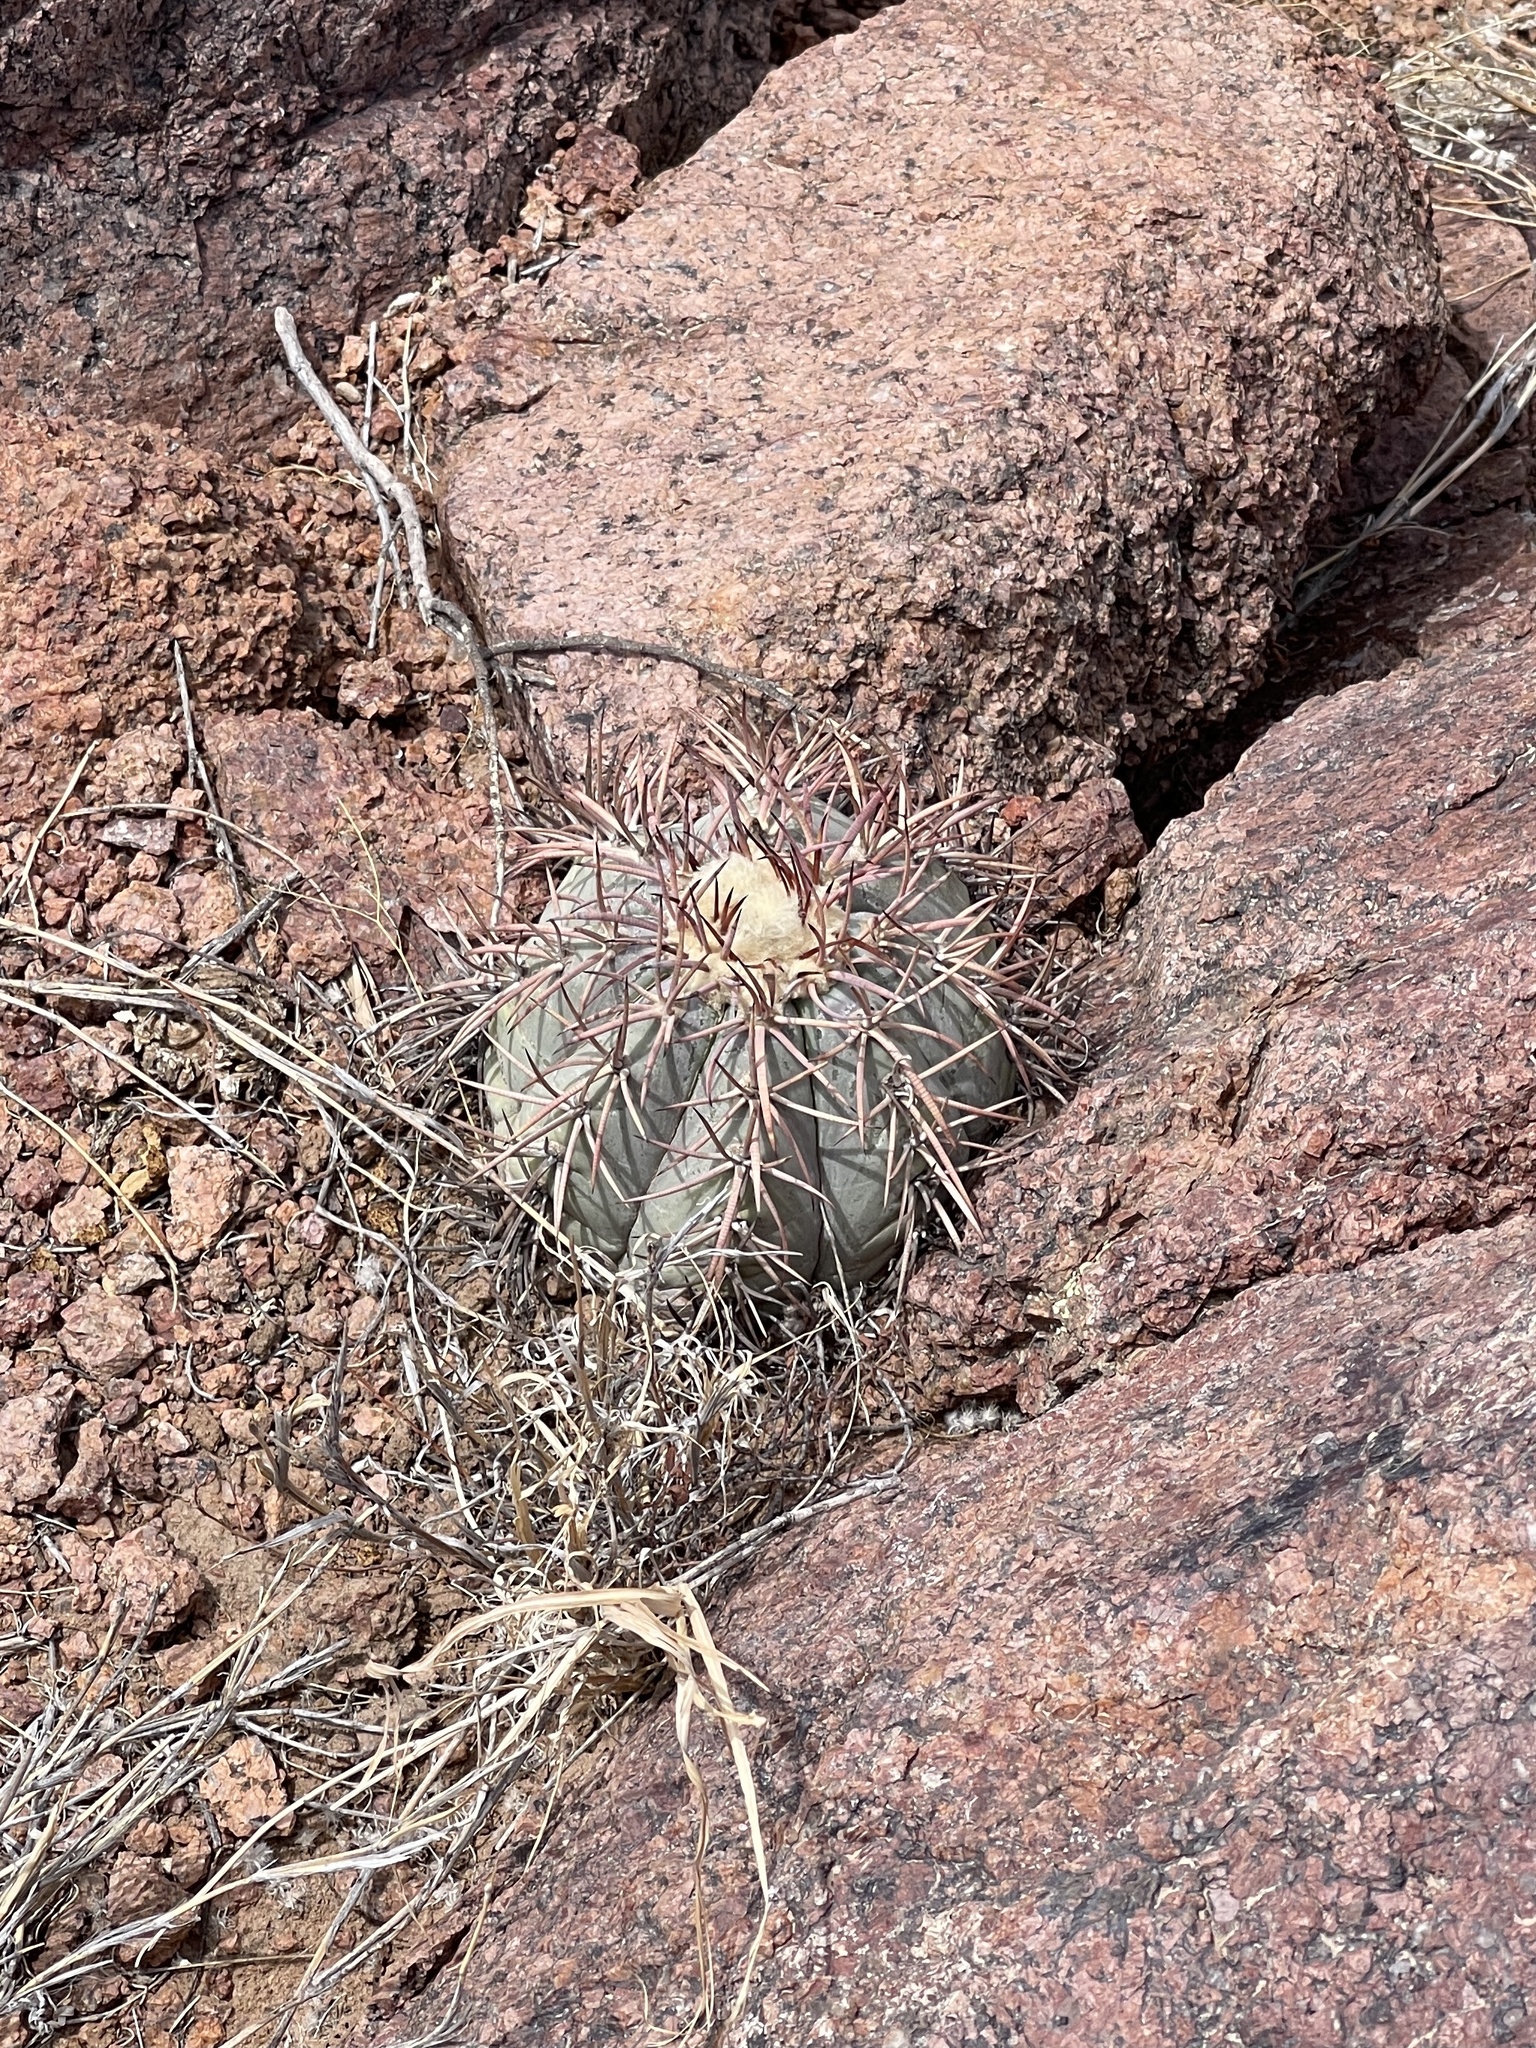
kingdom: Plantae
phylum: Tracheophyta
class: Magnoliopsida
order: Caryophyllales
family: Cactaceae
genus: Echinocactus
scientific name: Echinocactus horizonthalonius
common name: Devilshead
